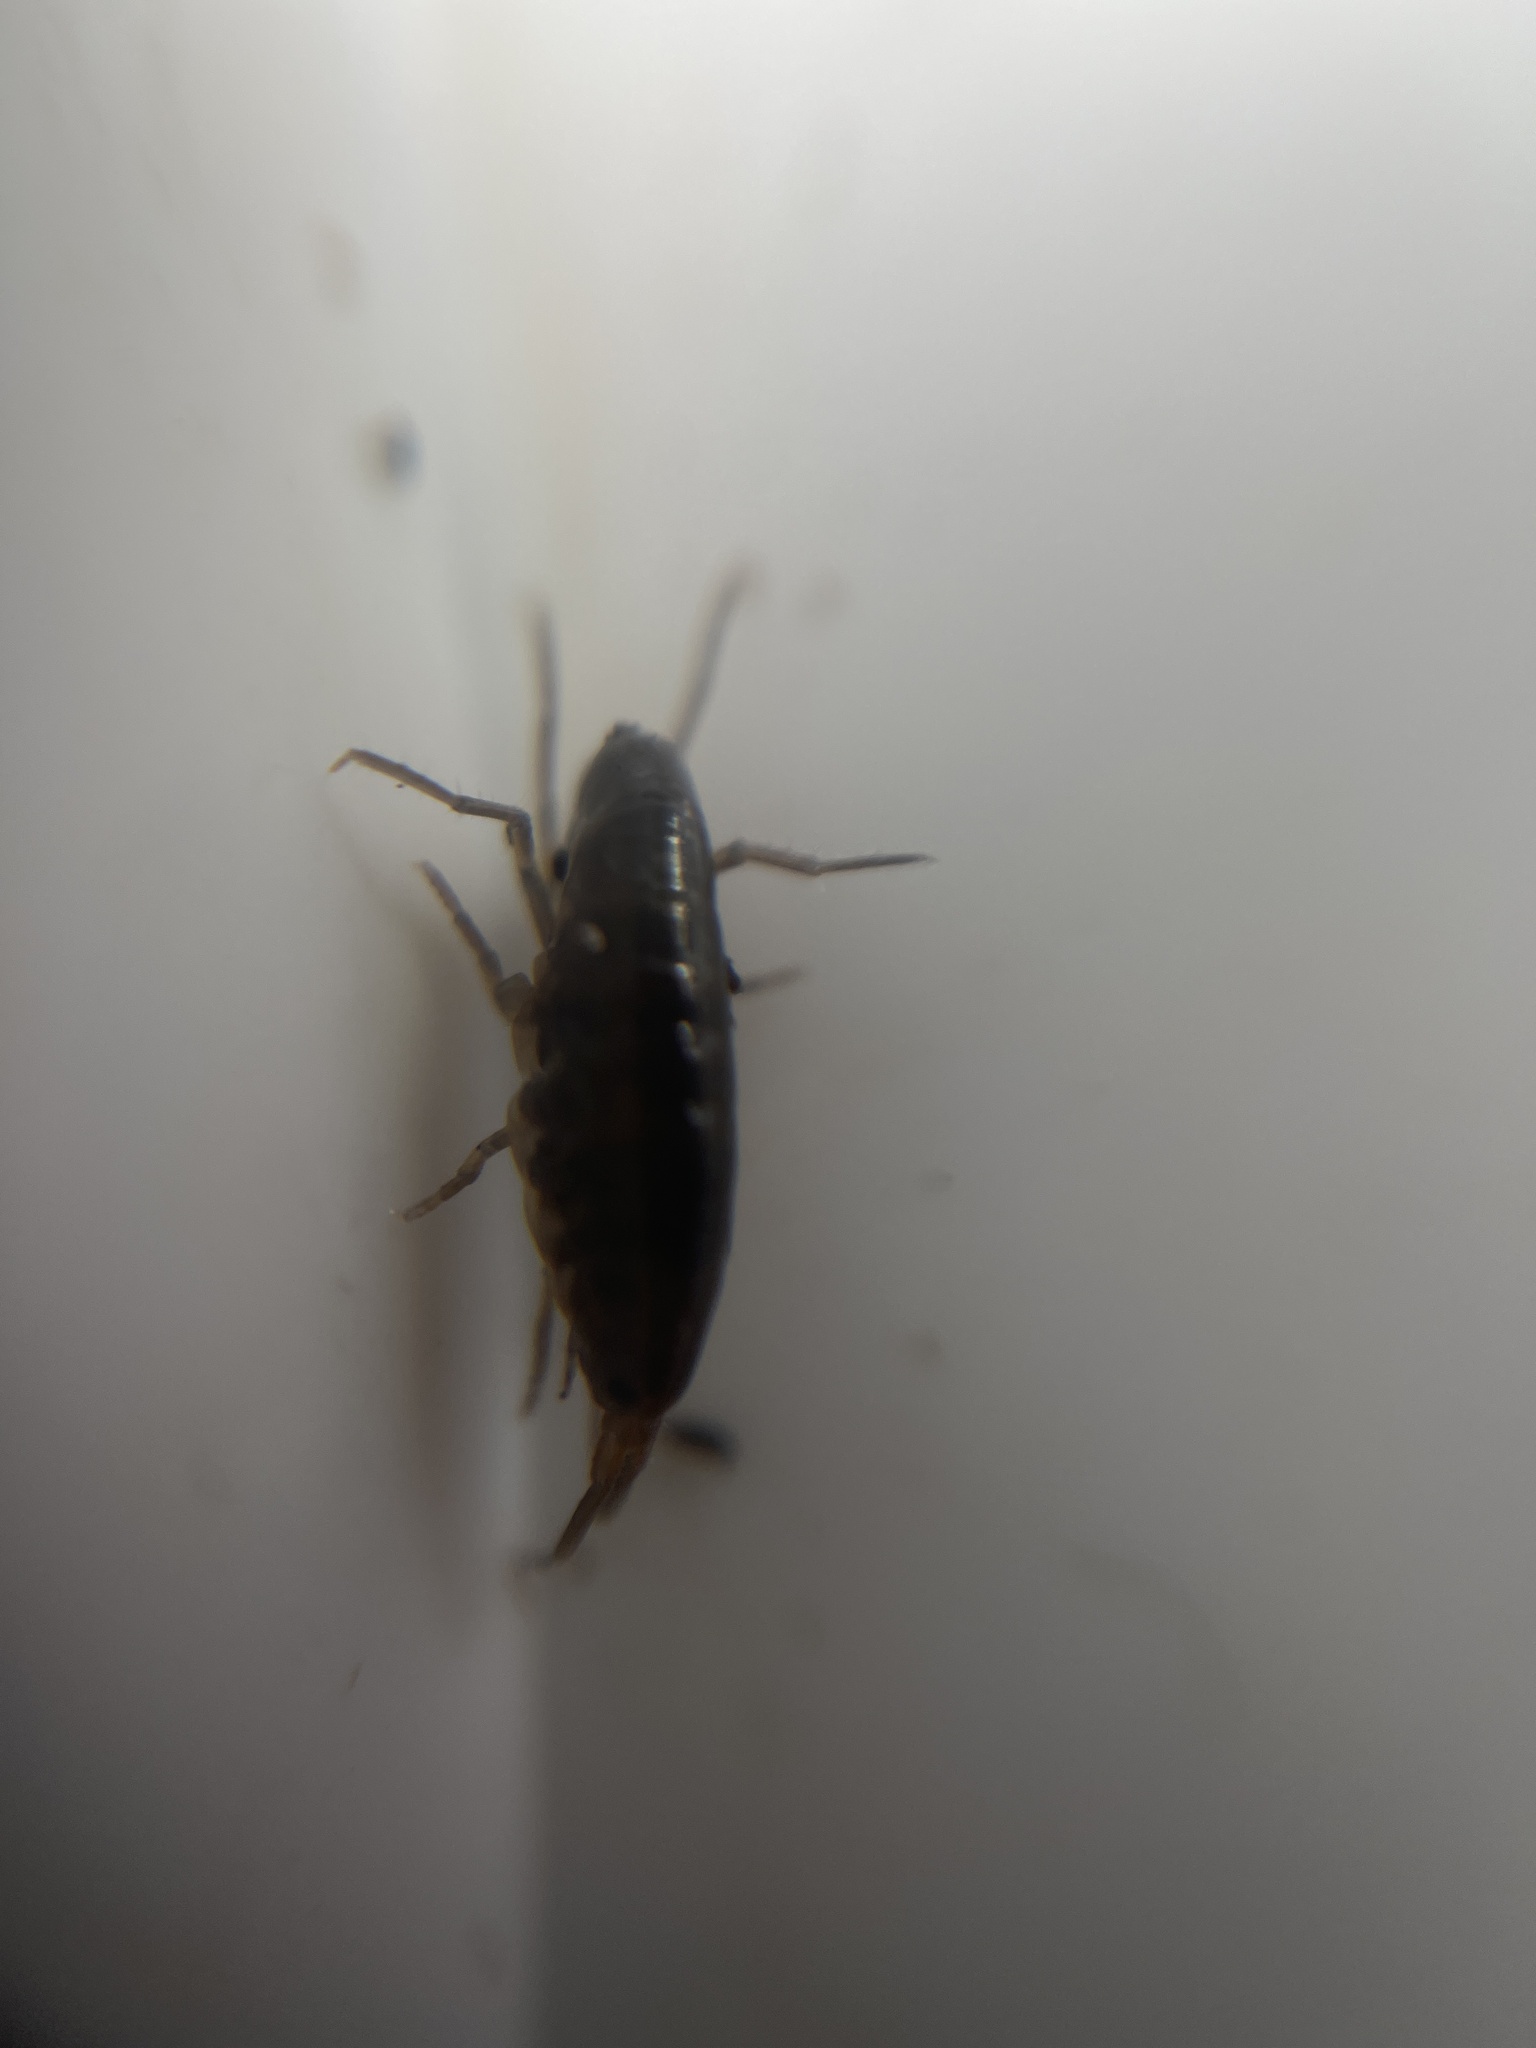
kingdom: Animalia
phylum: Arthropoda
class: Malacostraca
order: Amphipoda
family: Arcitalitridae
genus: Arcitalitrus
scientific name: Arcitalitrus dorrieni
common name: Landhopper
